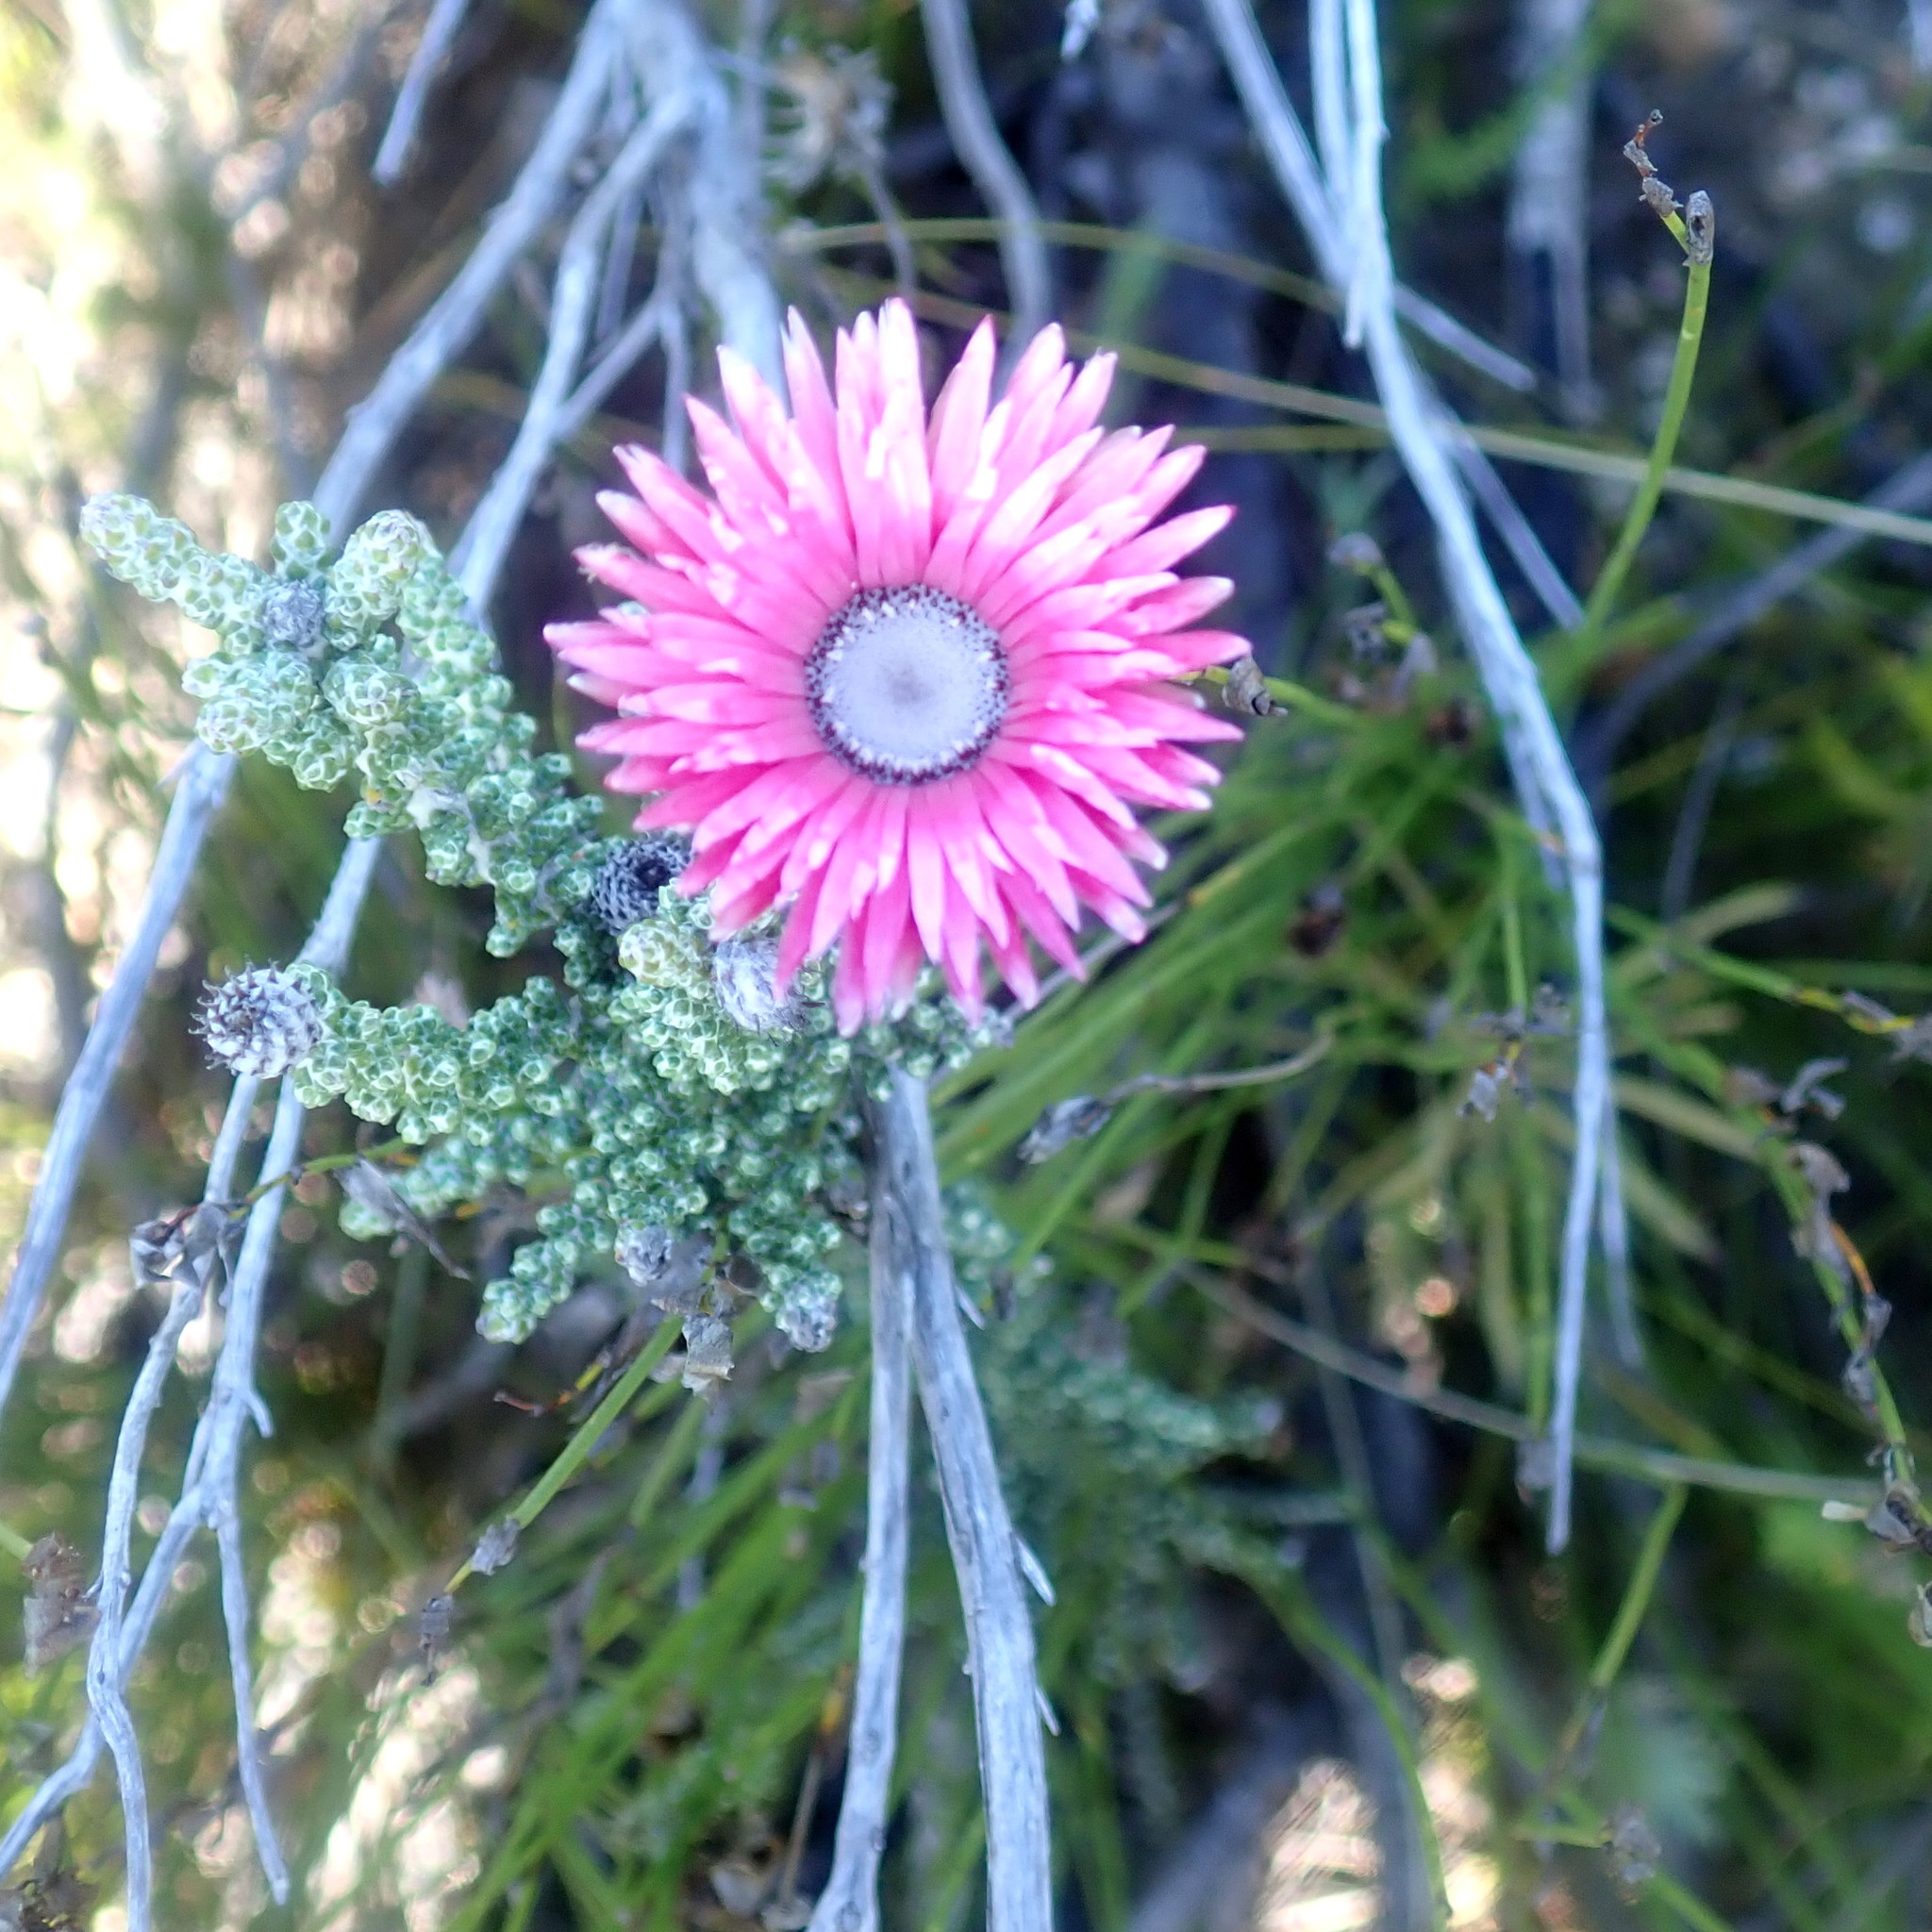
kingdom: Plantae
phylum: Tracheophyta
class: Magnoliopsida
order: Asterales
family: Asteraceae
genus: Phaenocoma
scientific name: Phaenocoma prolifera
